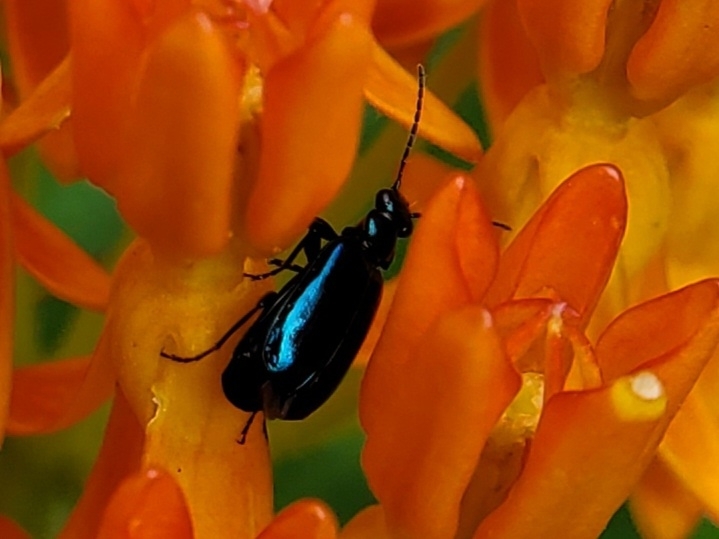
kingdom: Animalia
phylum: Arthropoda
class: Insecta
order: Coleoptera
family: Carabidae
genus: Lebia
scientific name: Lebia viridis
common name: Flower lebia beetle
